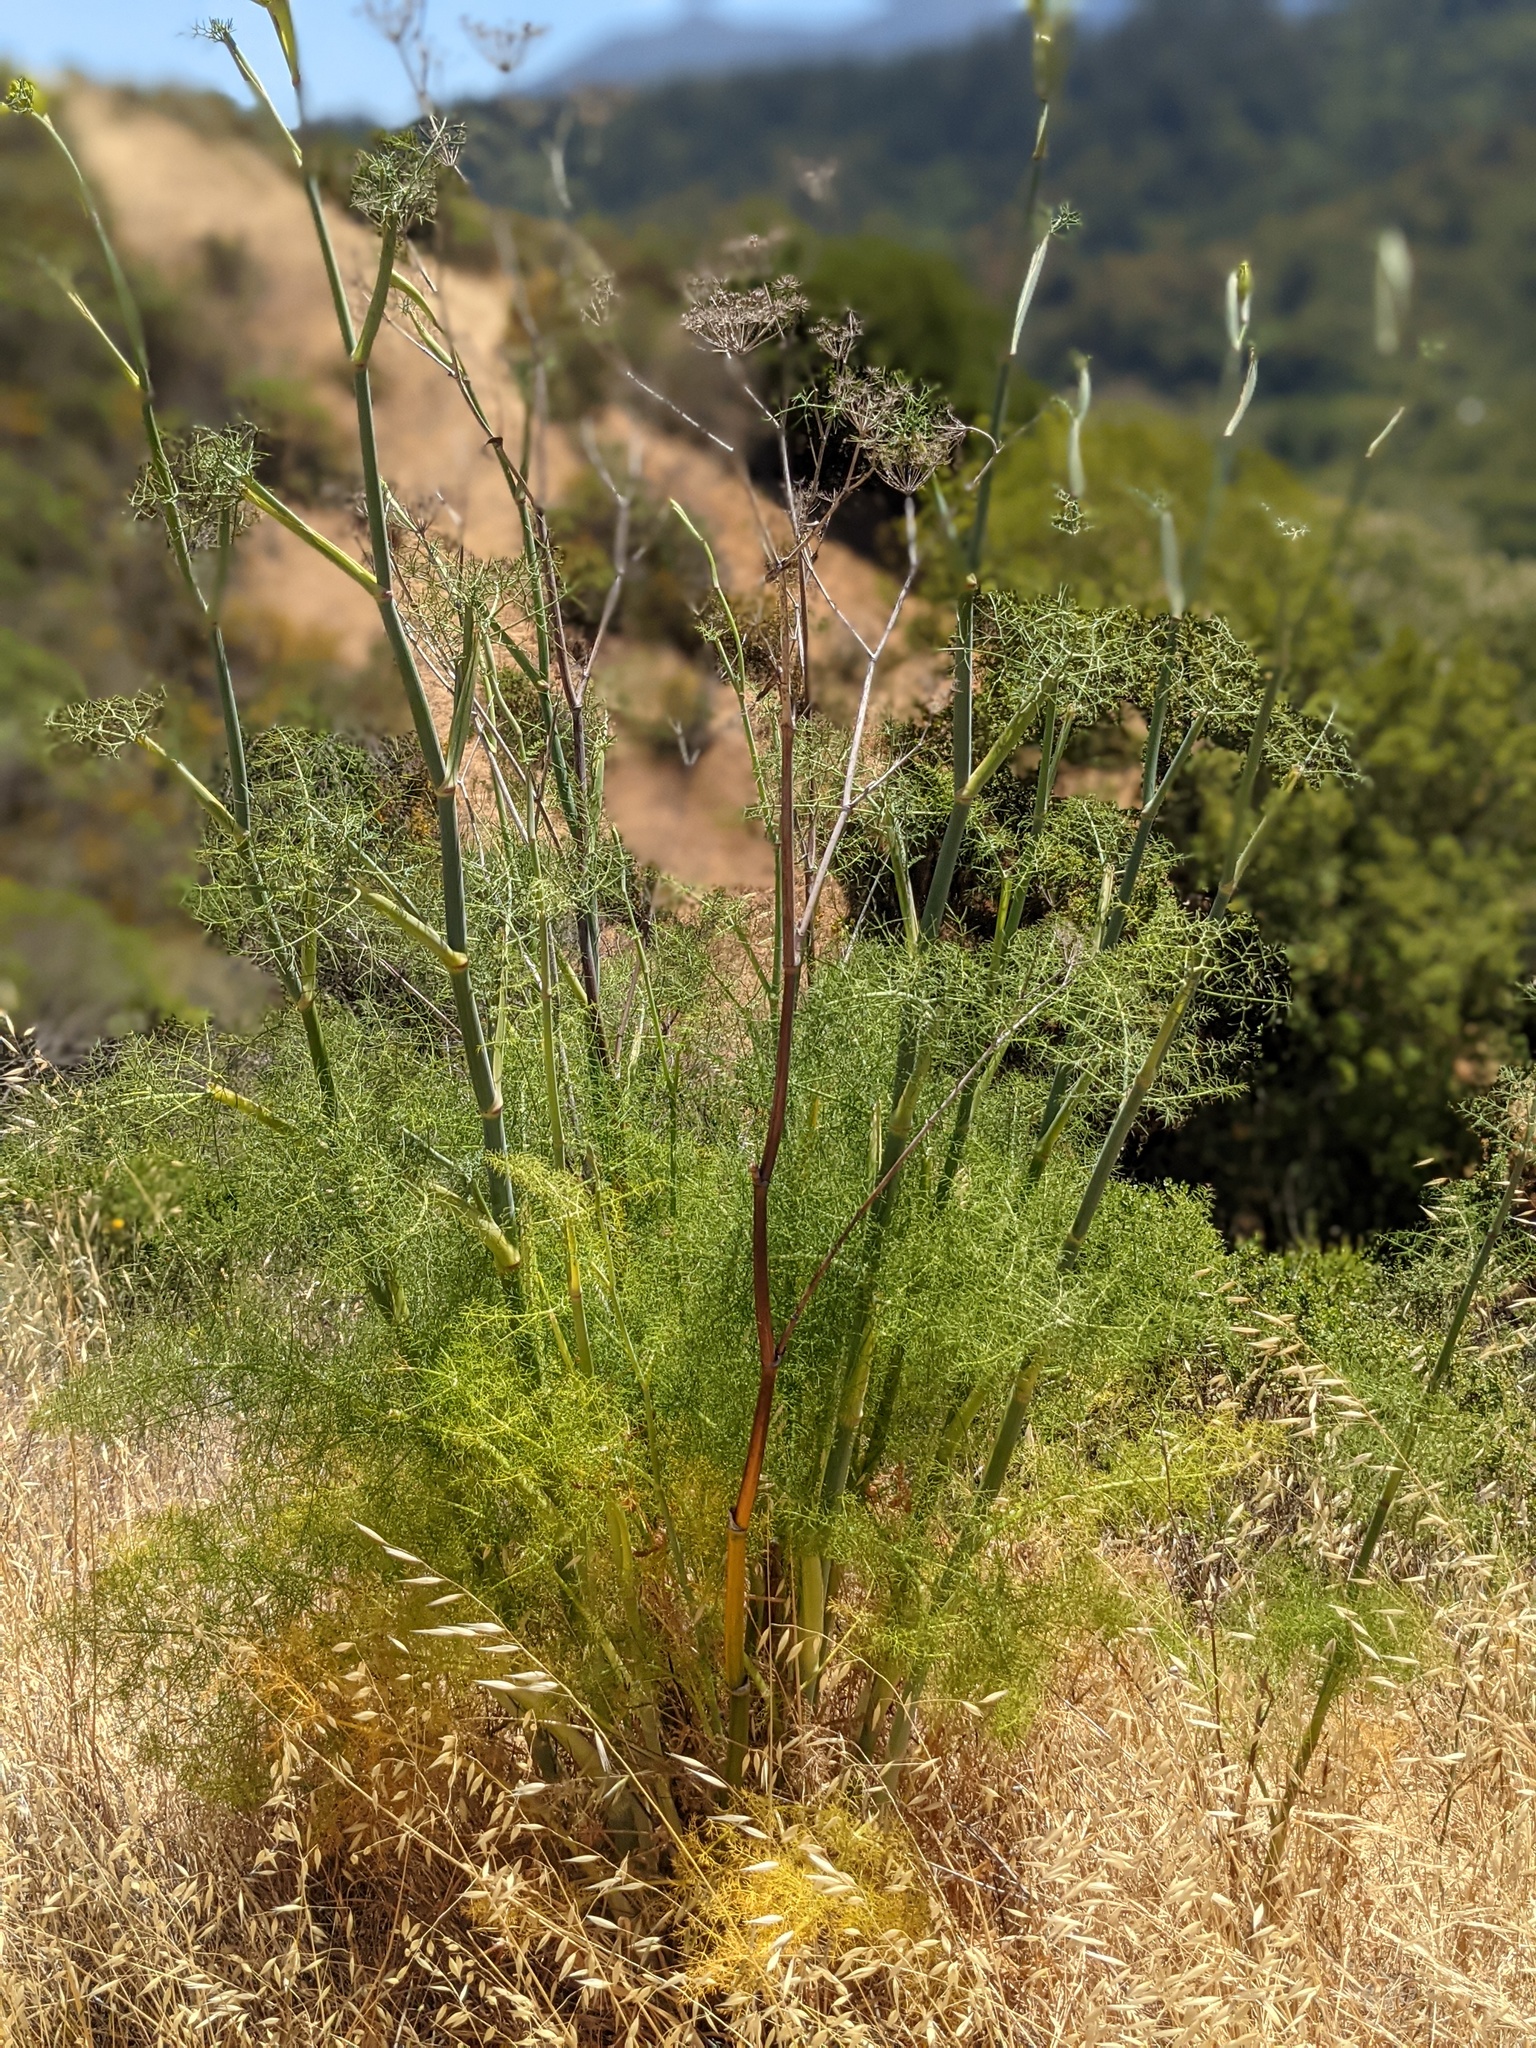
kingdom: Plantae
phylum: Tracheophyta
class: Magnoliopsida
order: Apiales
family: Apiaceae
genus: Foeniculum
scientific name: Foeniculum vulgare
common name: Fennel
